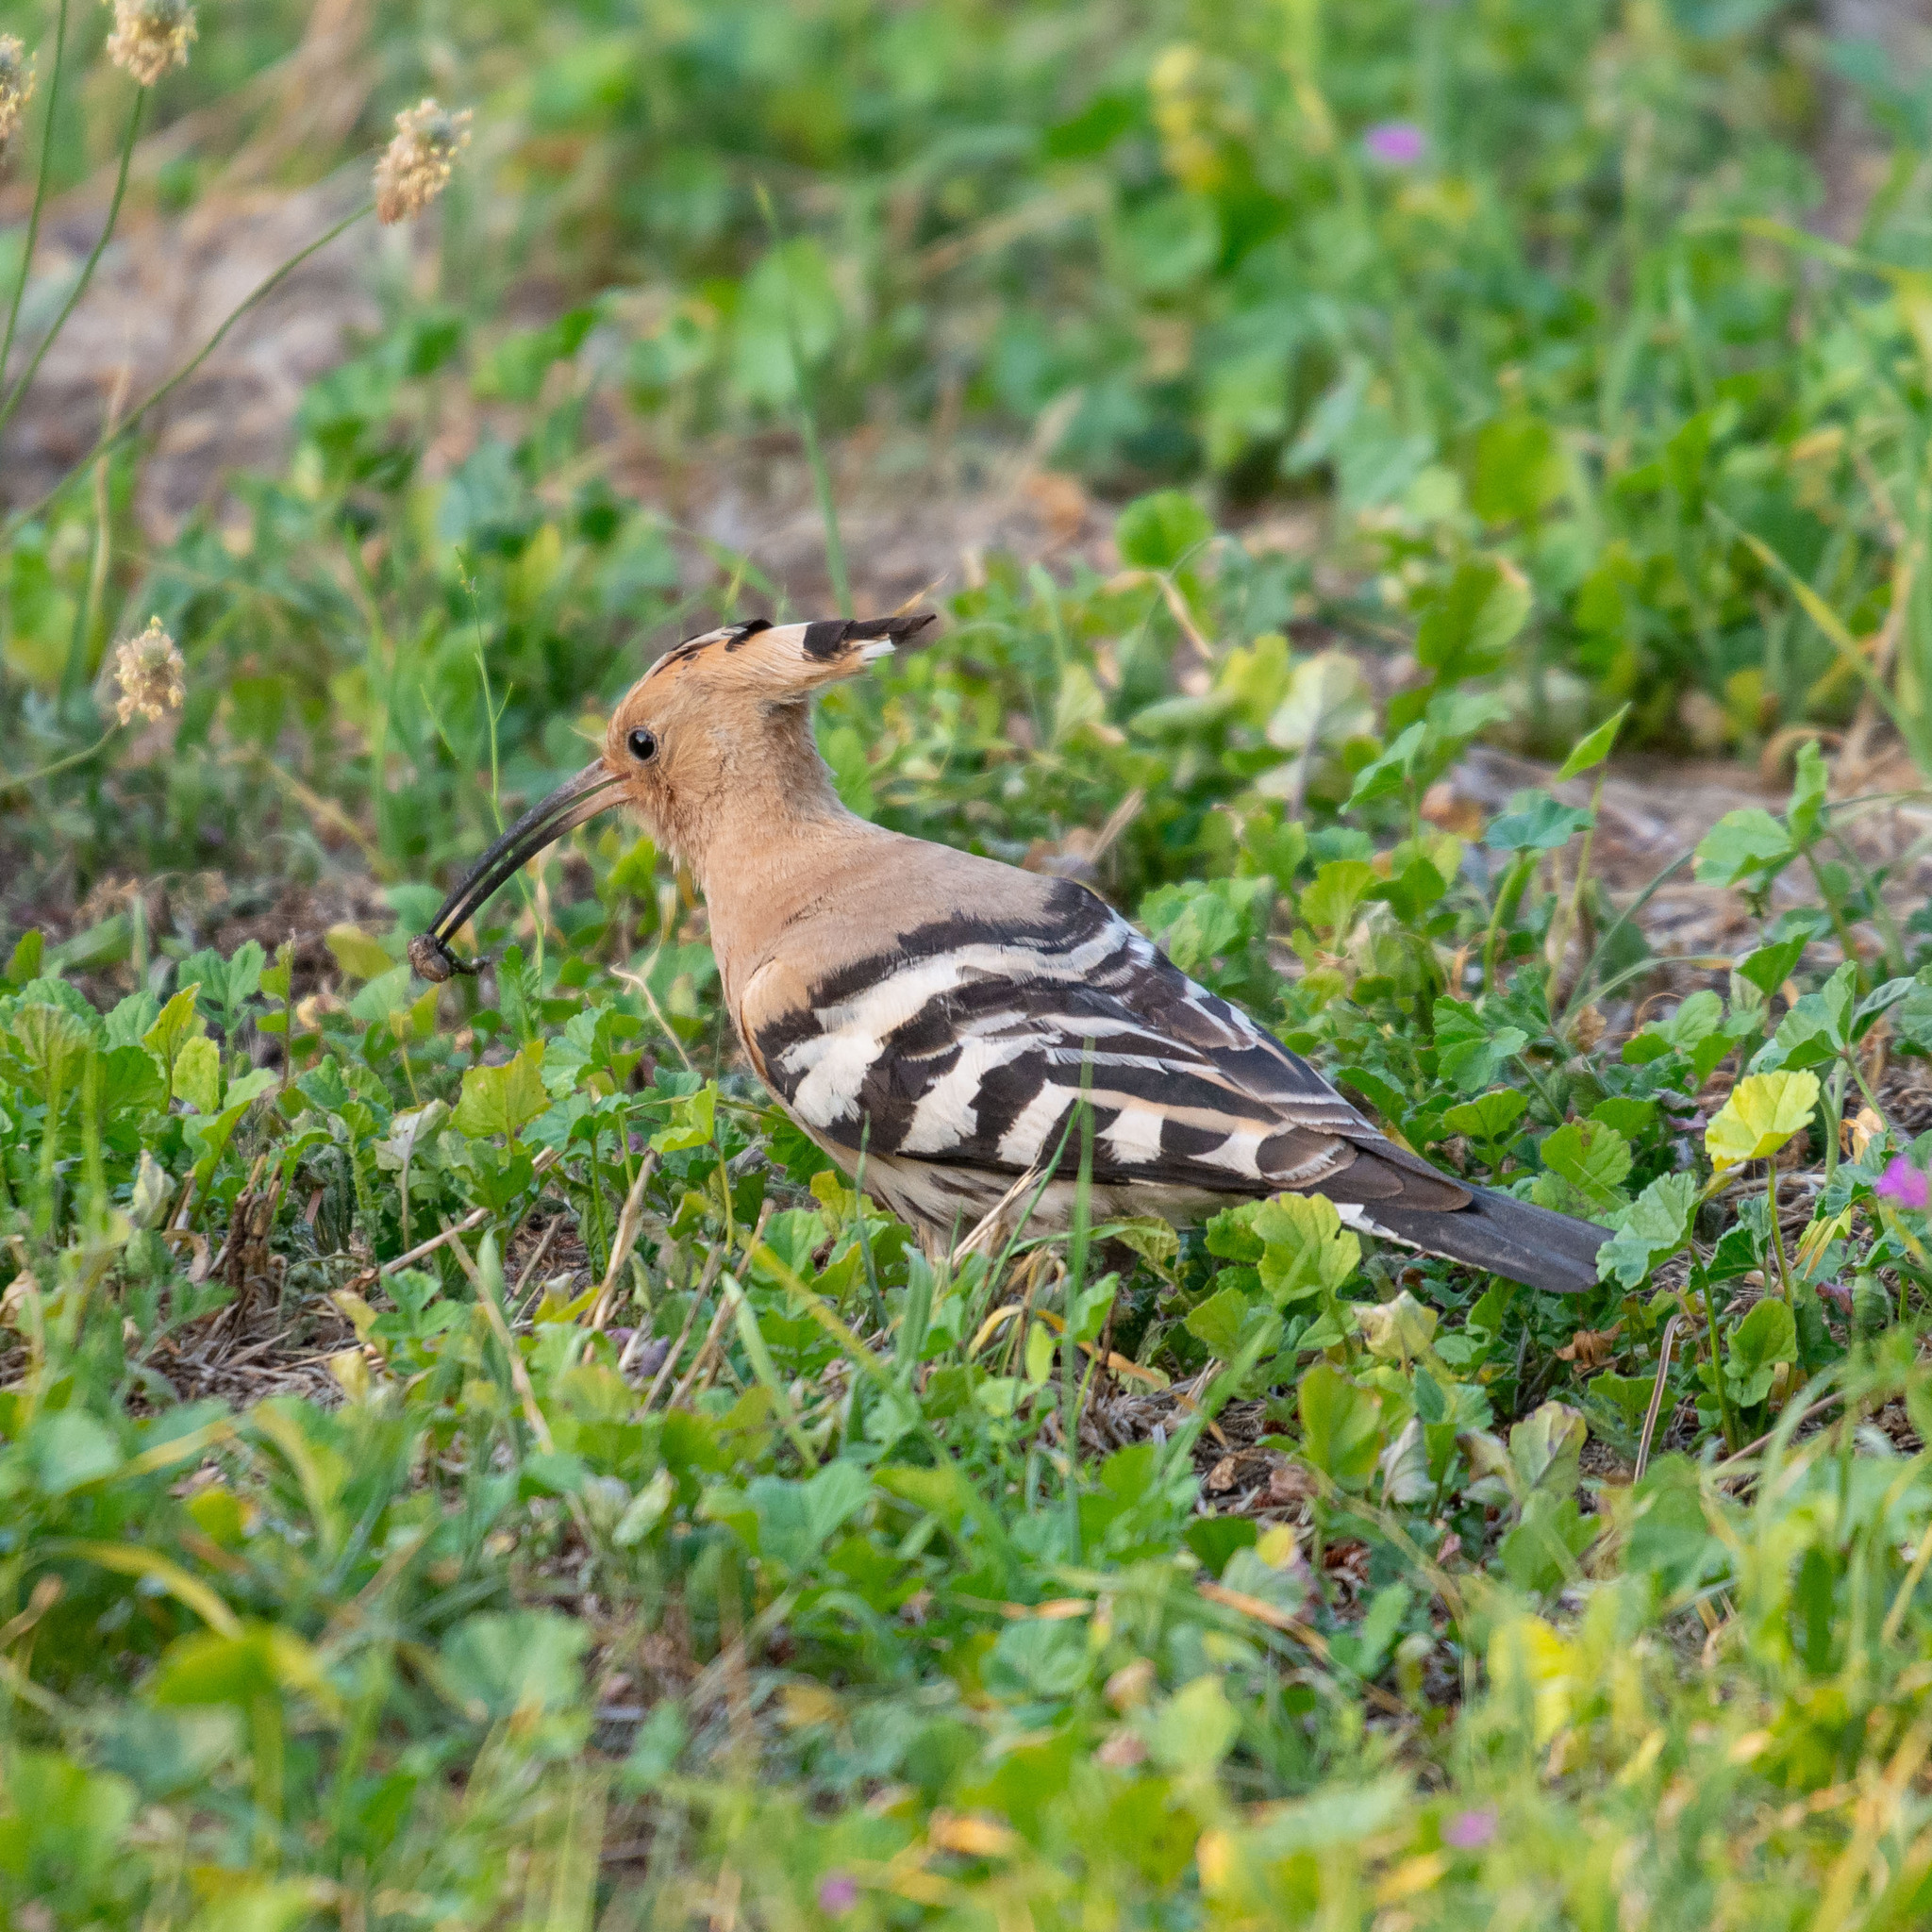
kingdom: Animalia
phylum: Chordata
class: Aves
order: Bucerotiformes
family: Upupidae
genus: Upupa
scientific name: Upupa epops
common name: Eurasian hoopoe
